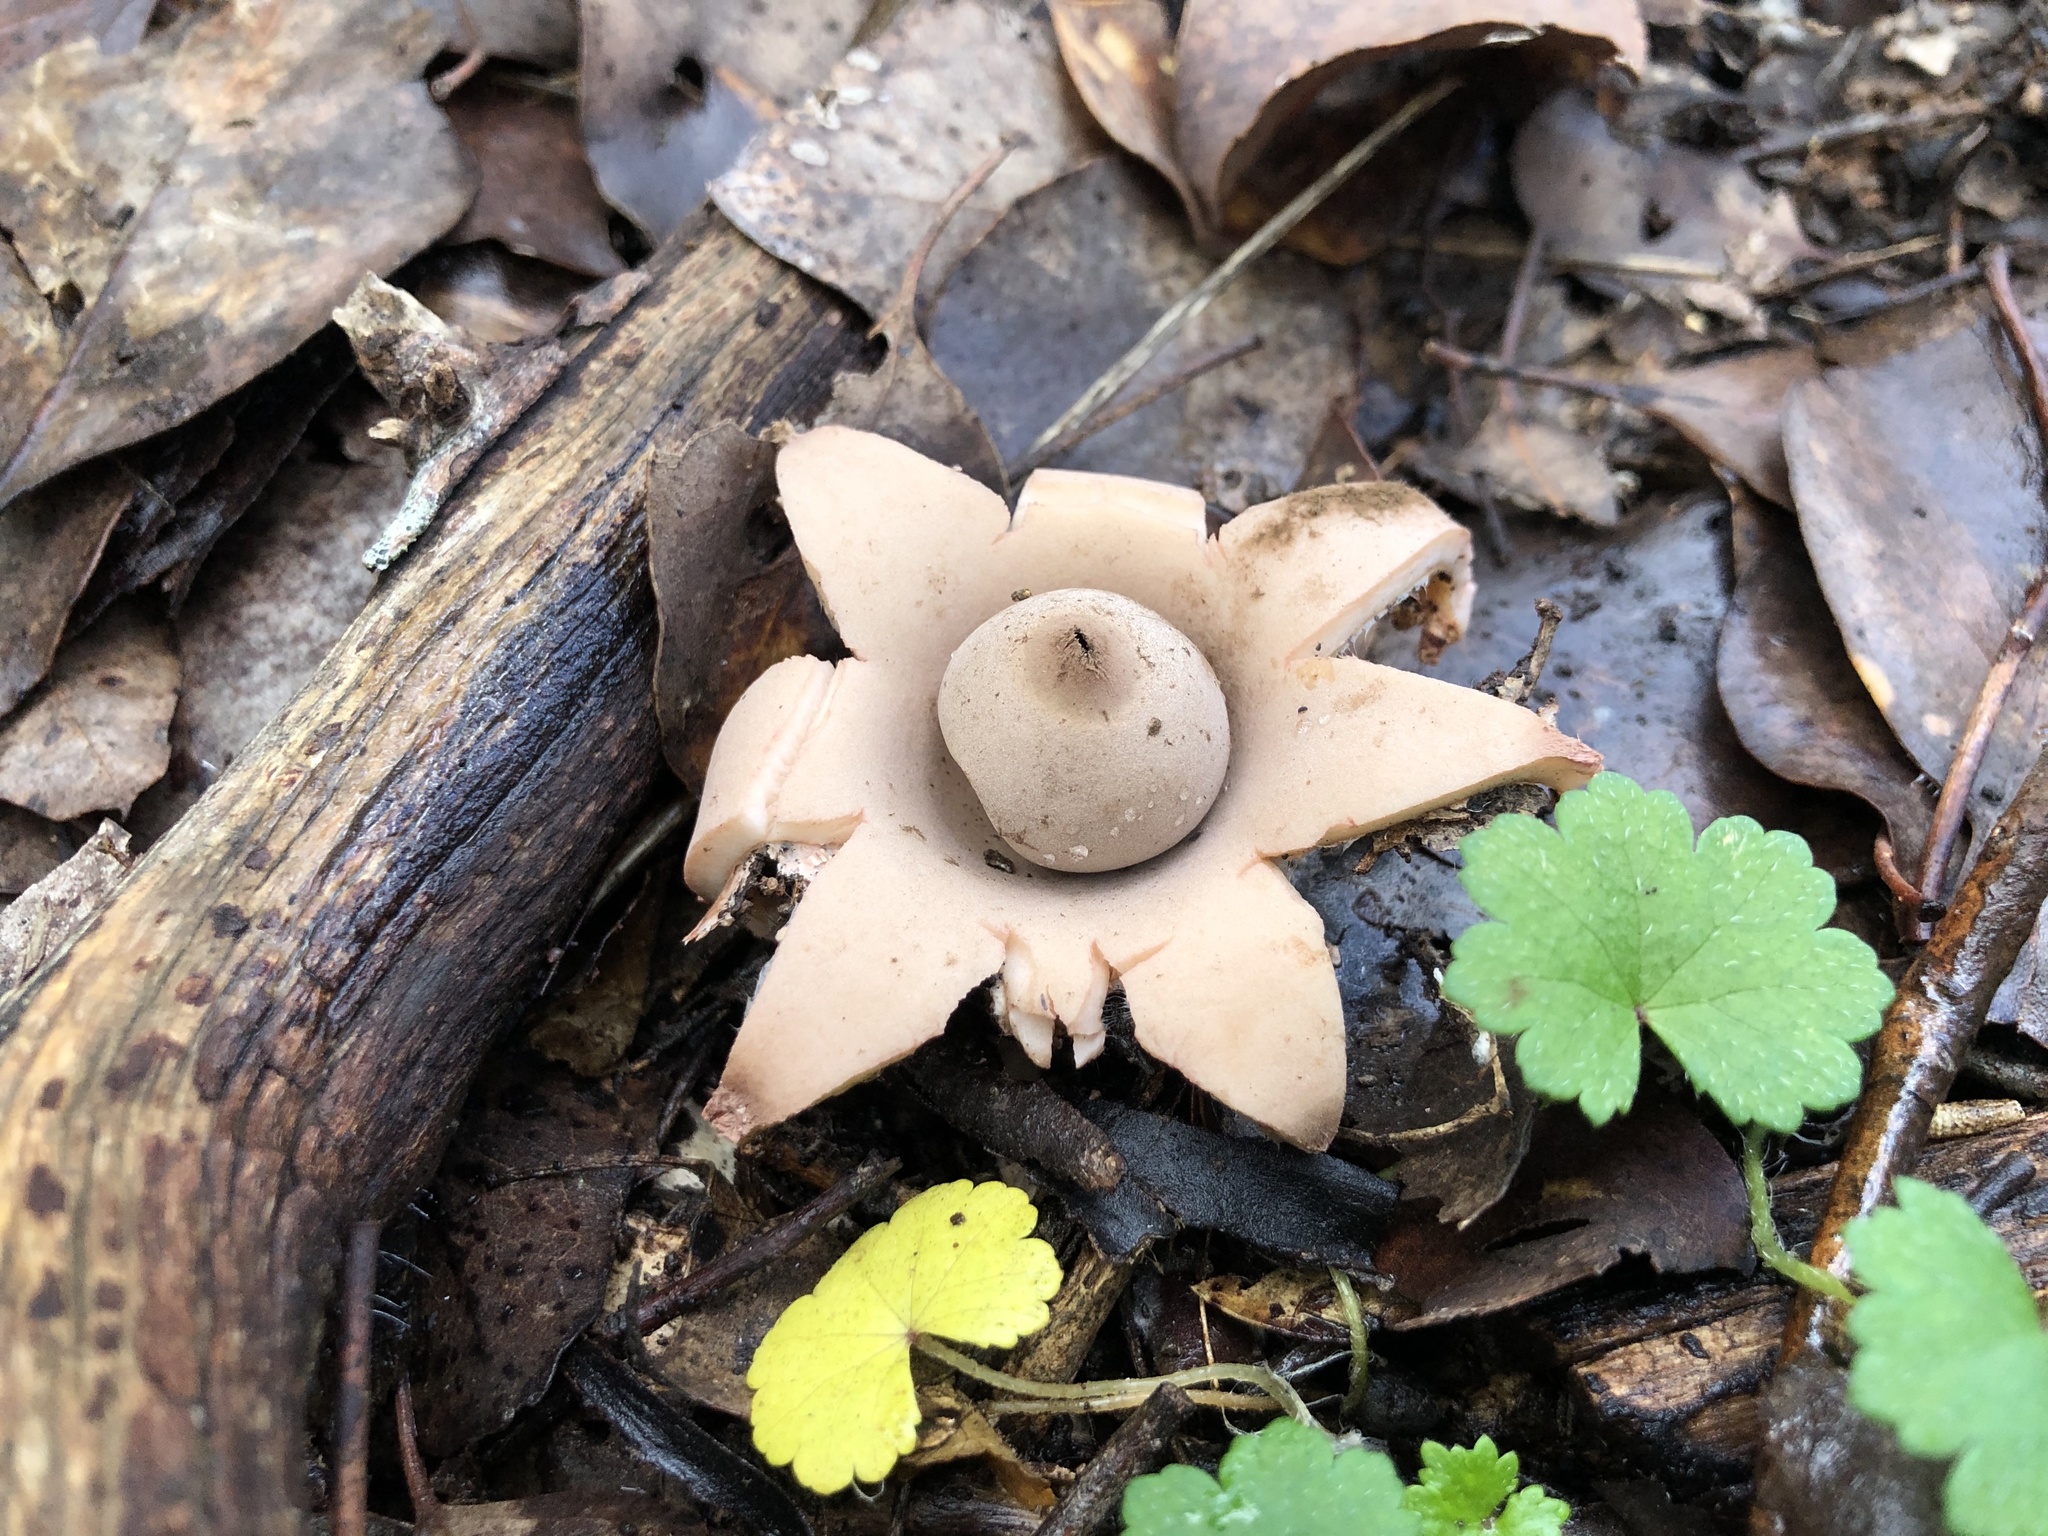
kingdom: Fungi
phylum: Basidiomycota
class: Agaricomycetes
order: Geastrales
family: Geastraceae
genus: Geastrum
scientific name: Geastrum triplex
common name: Collared earthstar
